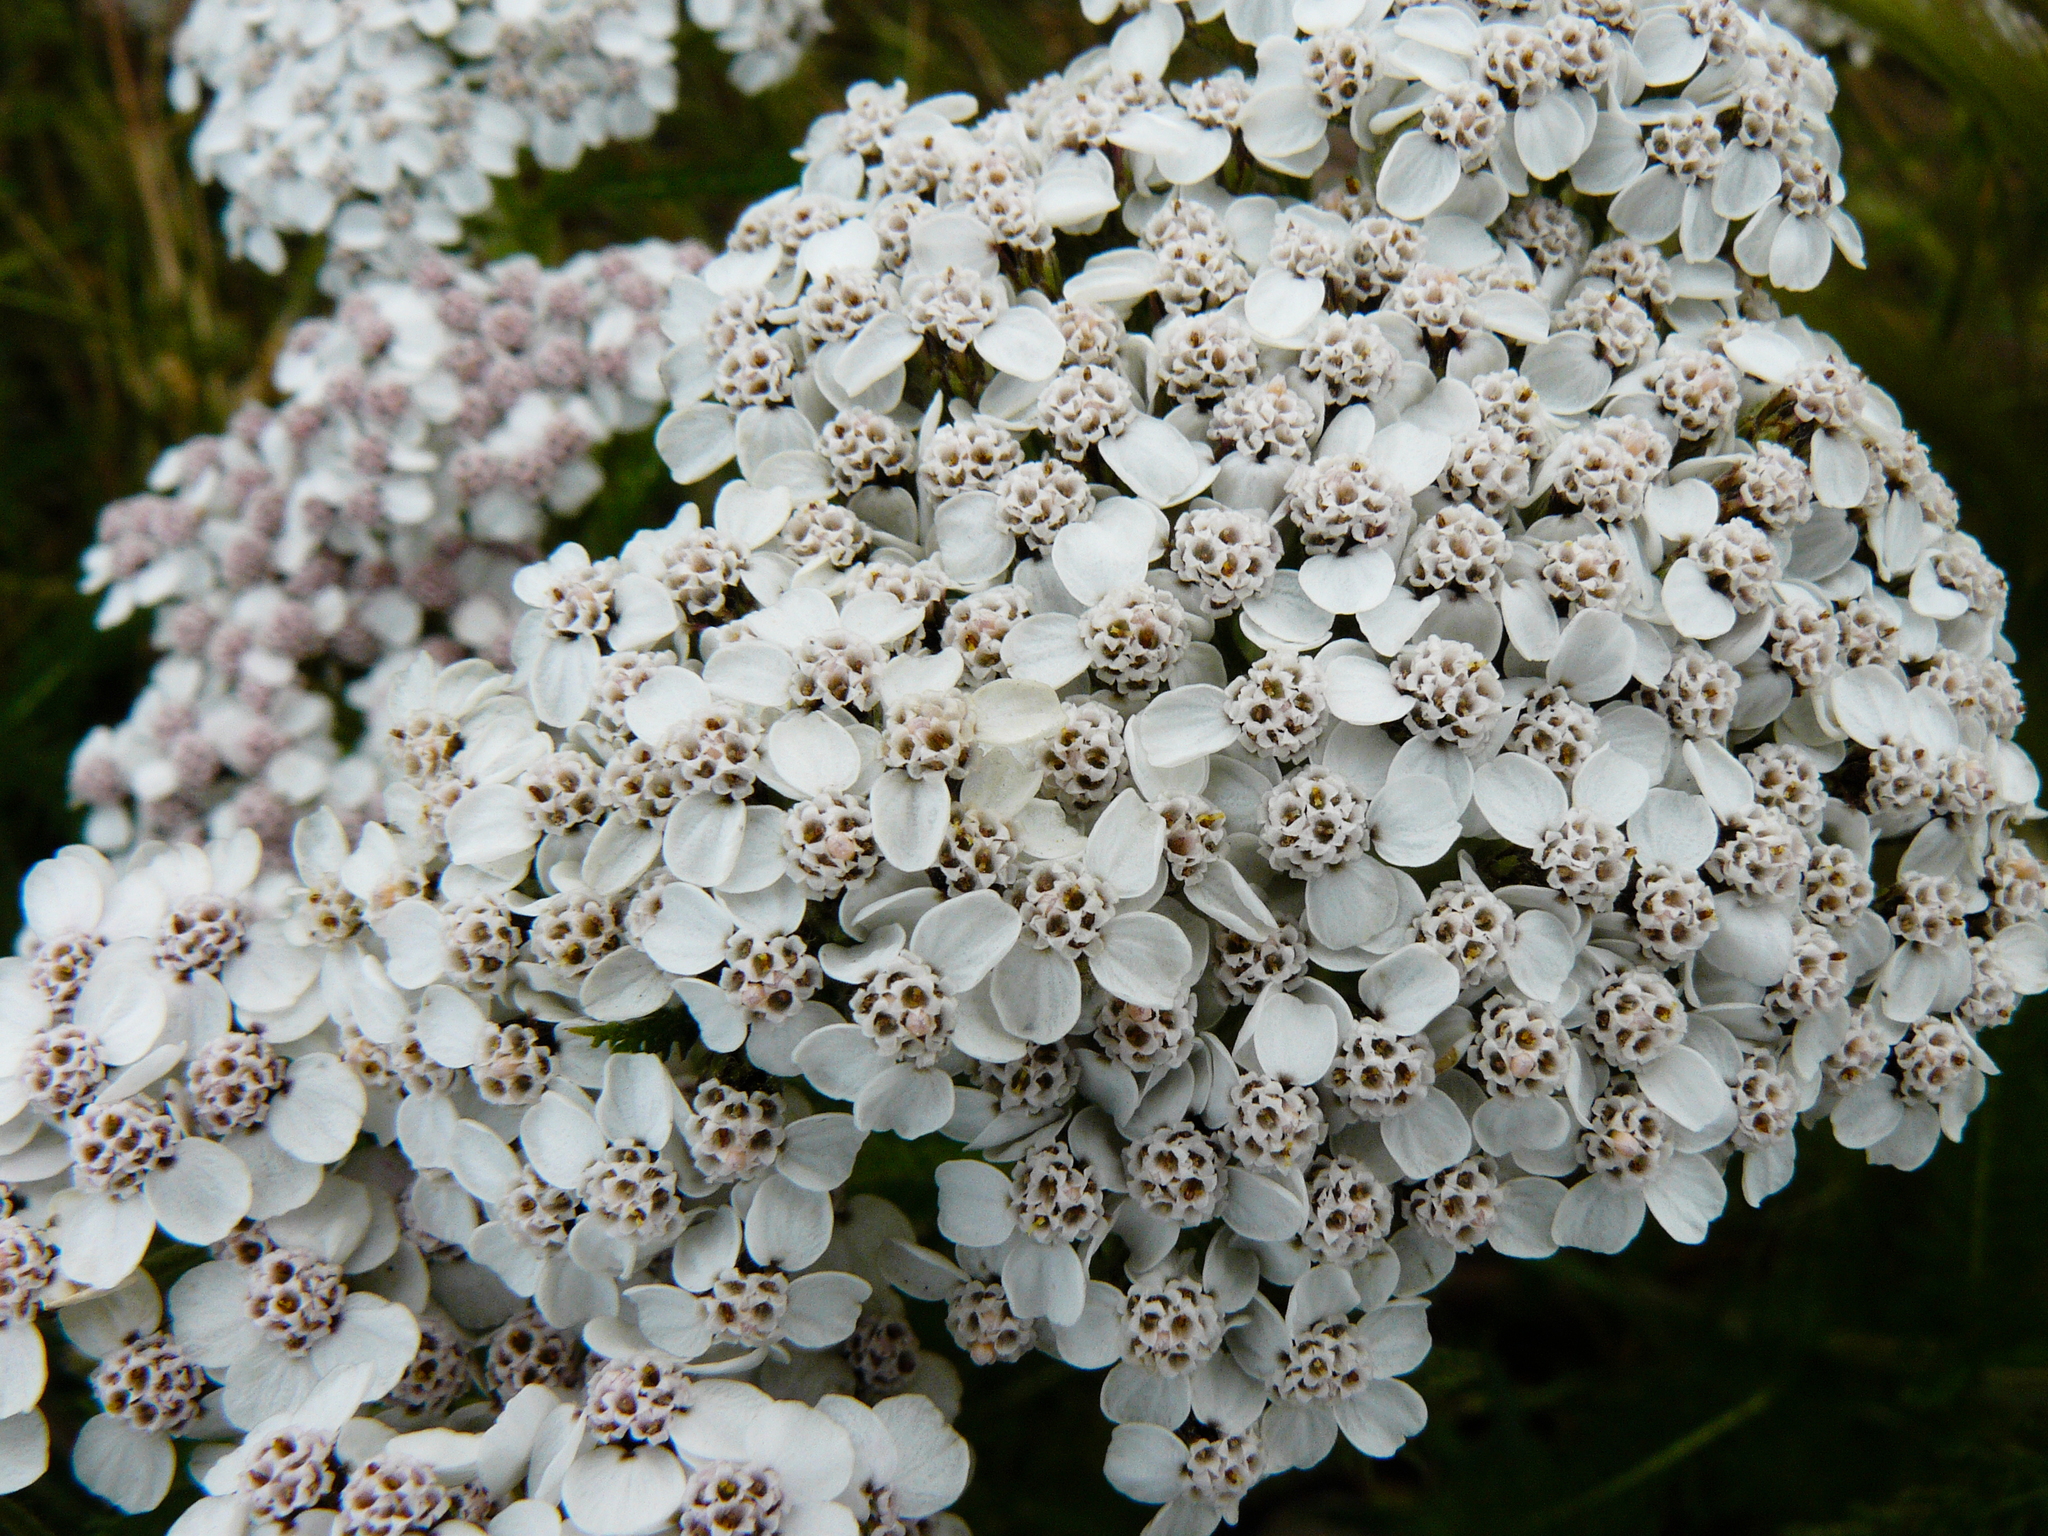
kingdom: Plantae
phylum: Tracheophyta
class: Magnoliopsida
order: Asterales
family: Asteraceae
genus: Achillea
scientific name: Achillea millefolium
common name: Yarrow
